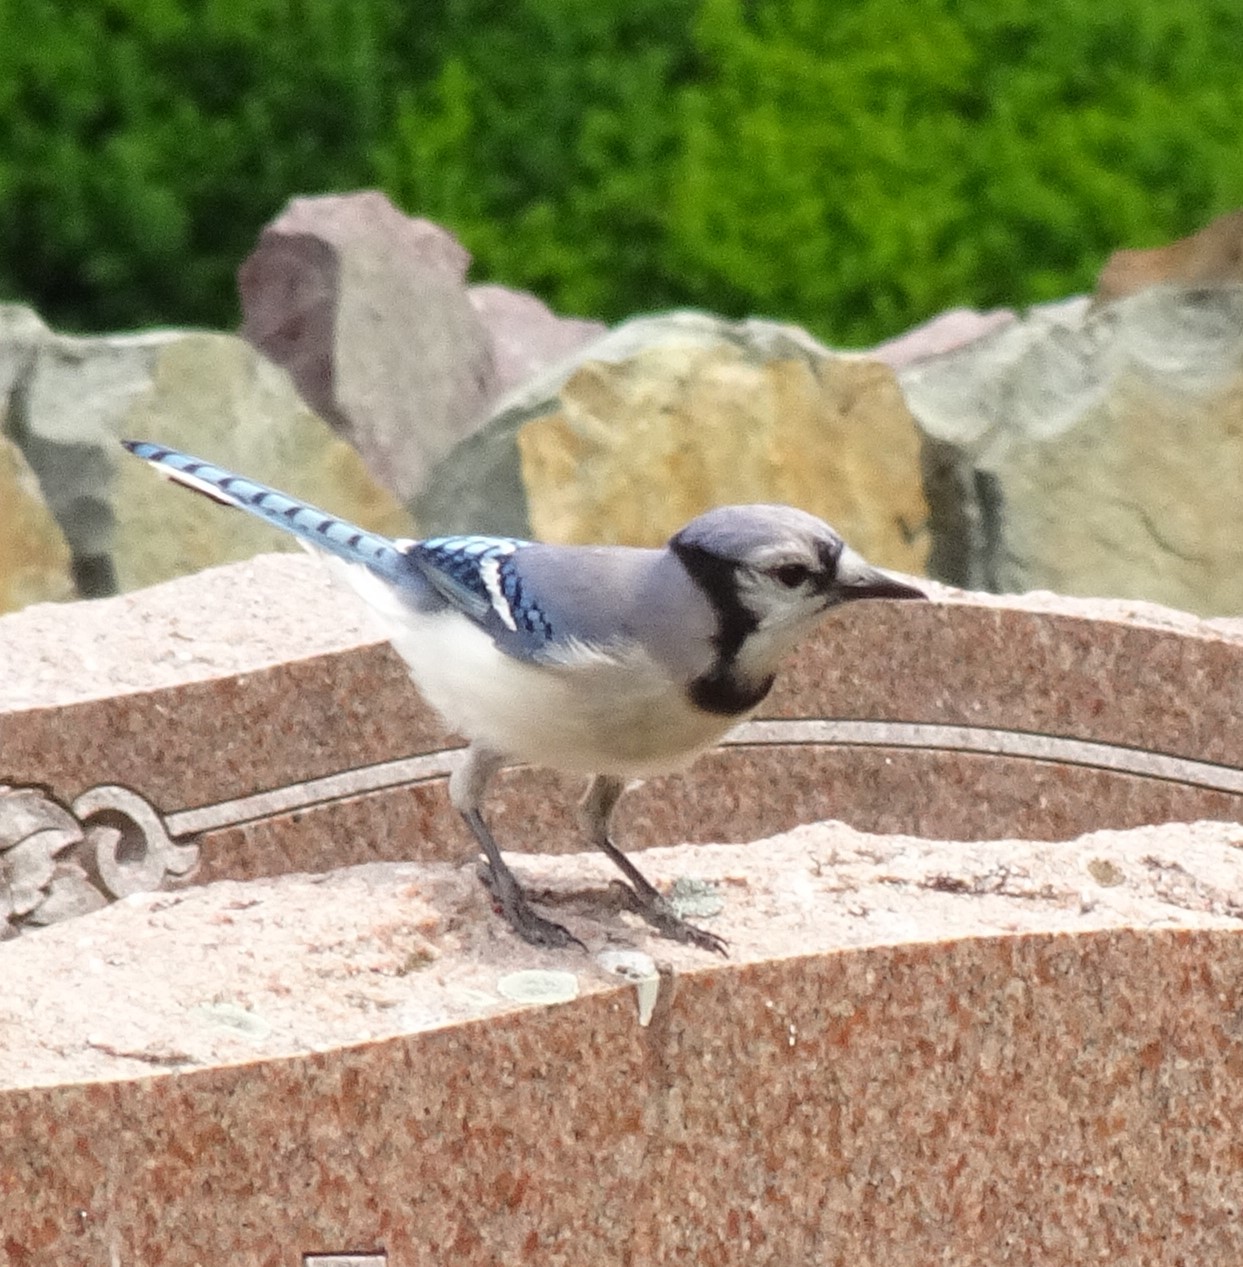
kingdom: Animalia
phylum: Chordata
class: Aves
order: Passeriformes
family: Corvidae
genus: Cyanocitta
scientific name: Cyanocitta cristata
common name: Blue jay
